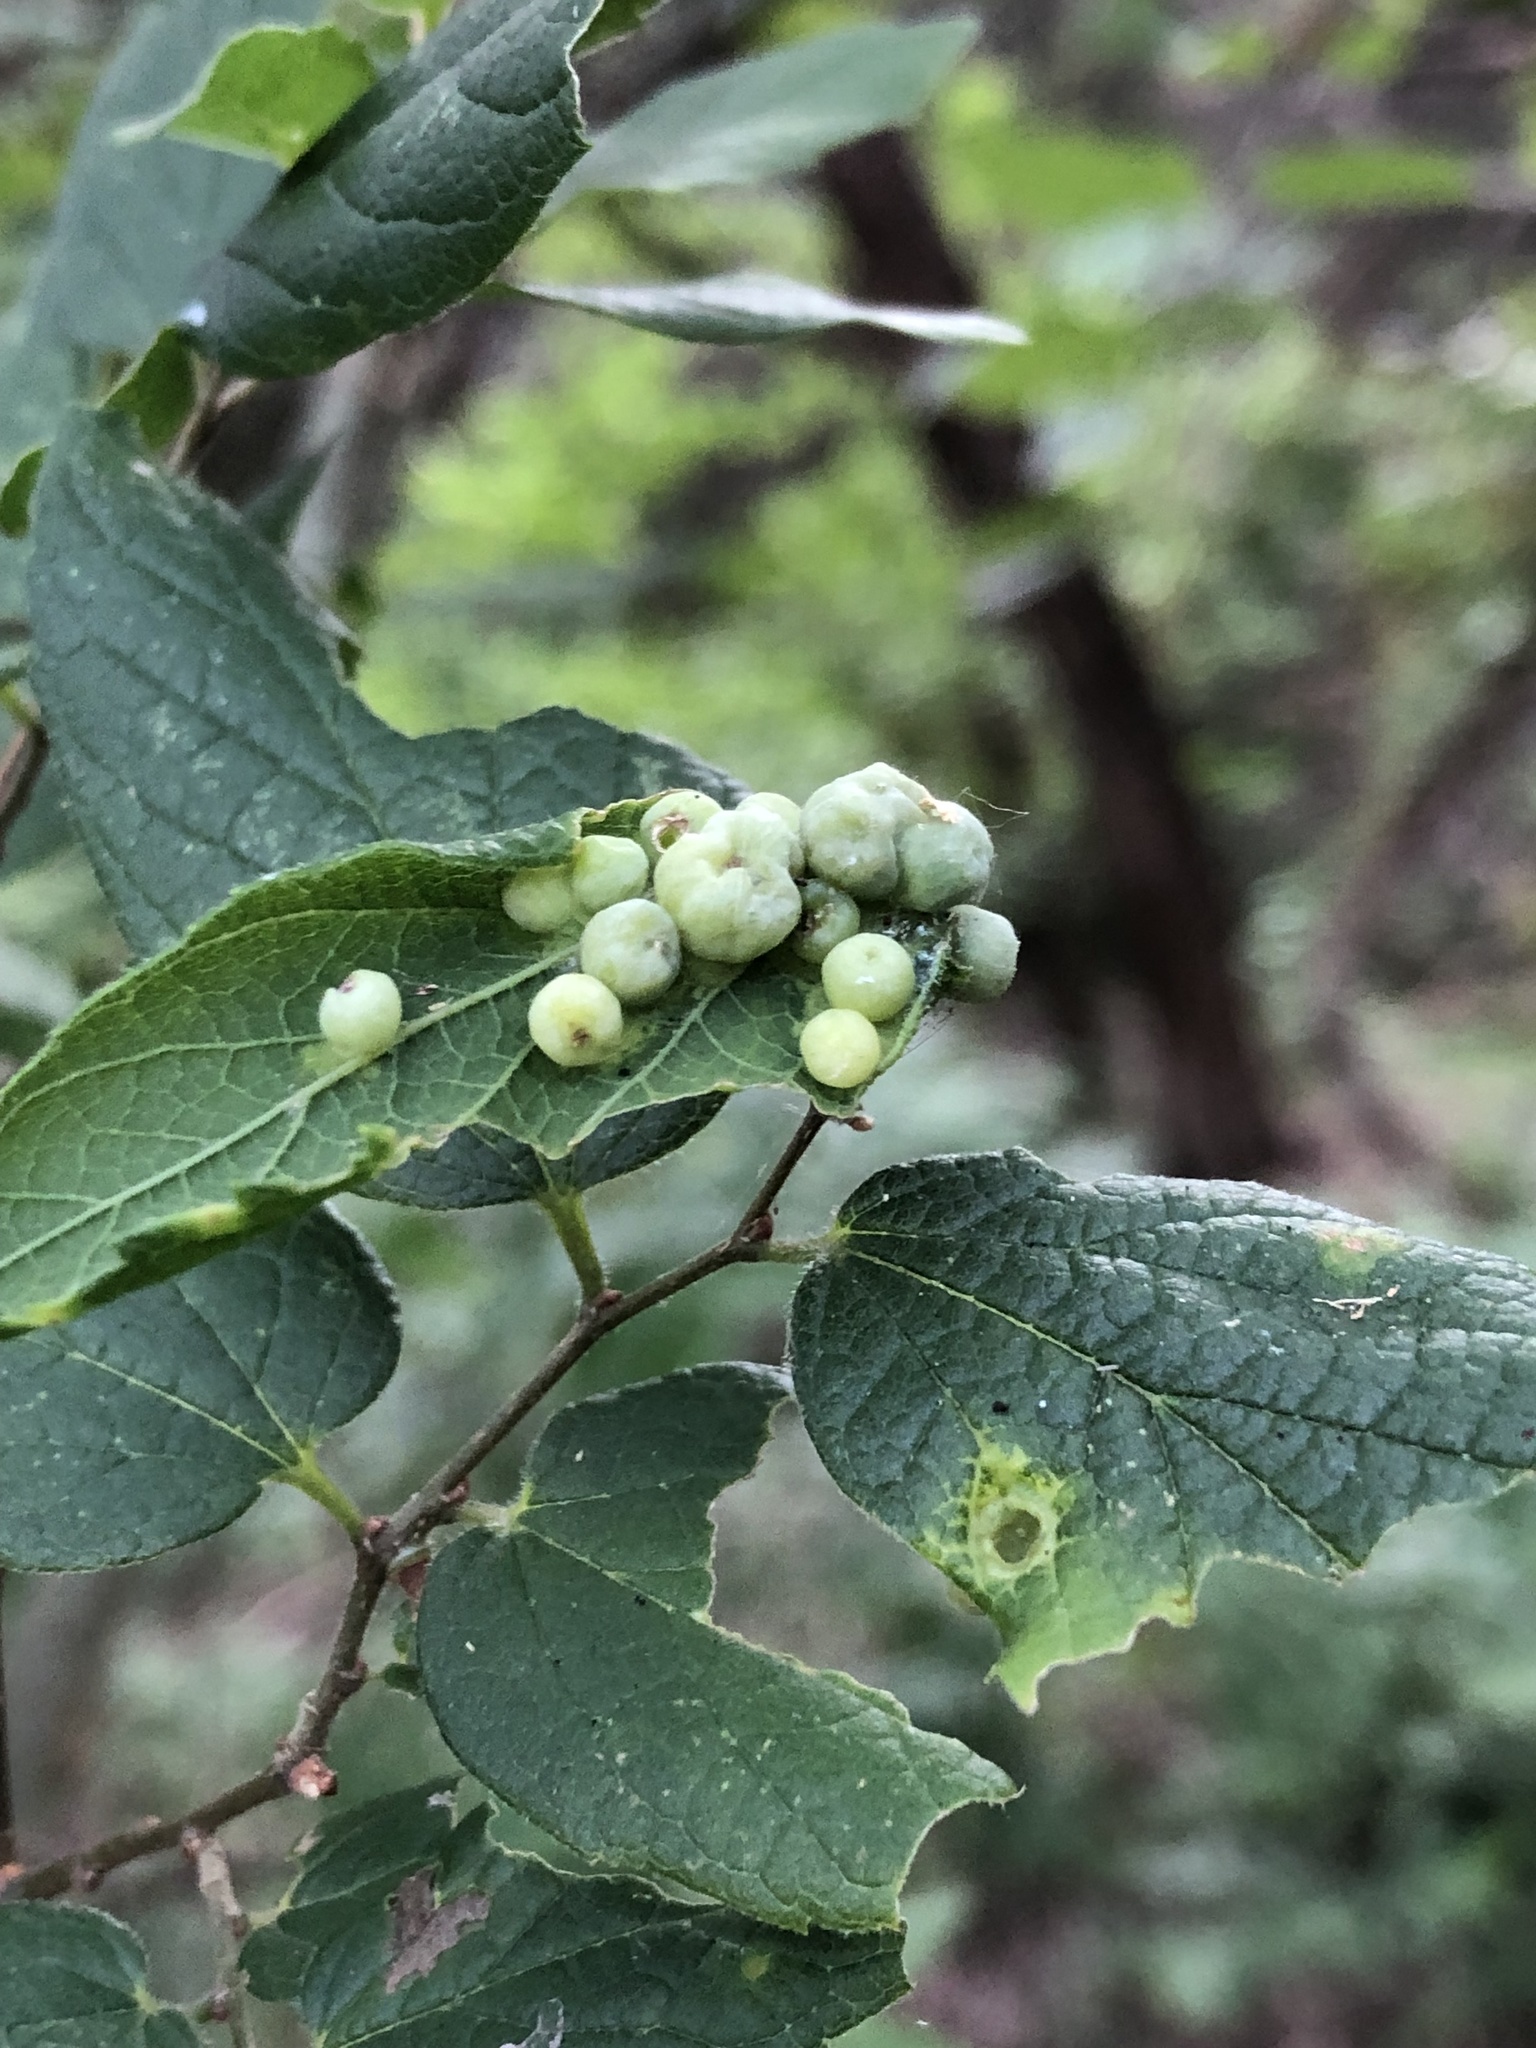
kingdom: Animalia
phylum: Arthropoda
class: Insecta
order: Hemiptera
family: Aphalaridae
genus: Pachypsylla
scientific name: Pachypsylla celtidismamma
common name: Hackberry nipplegall psyllid
